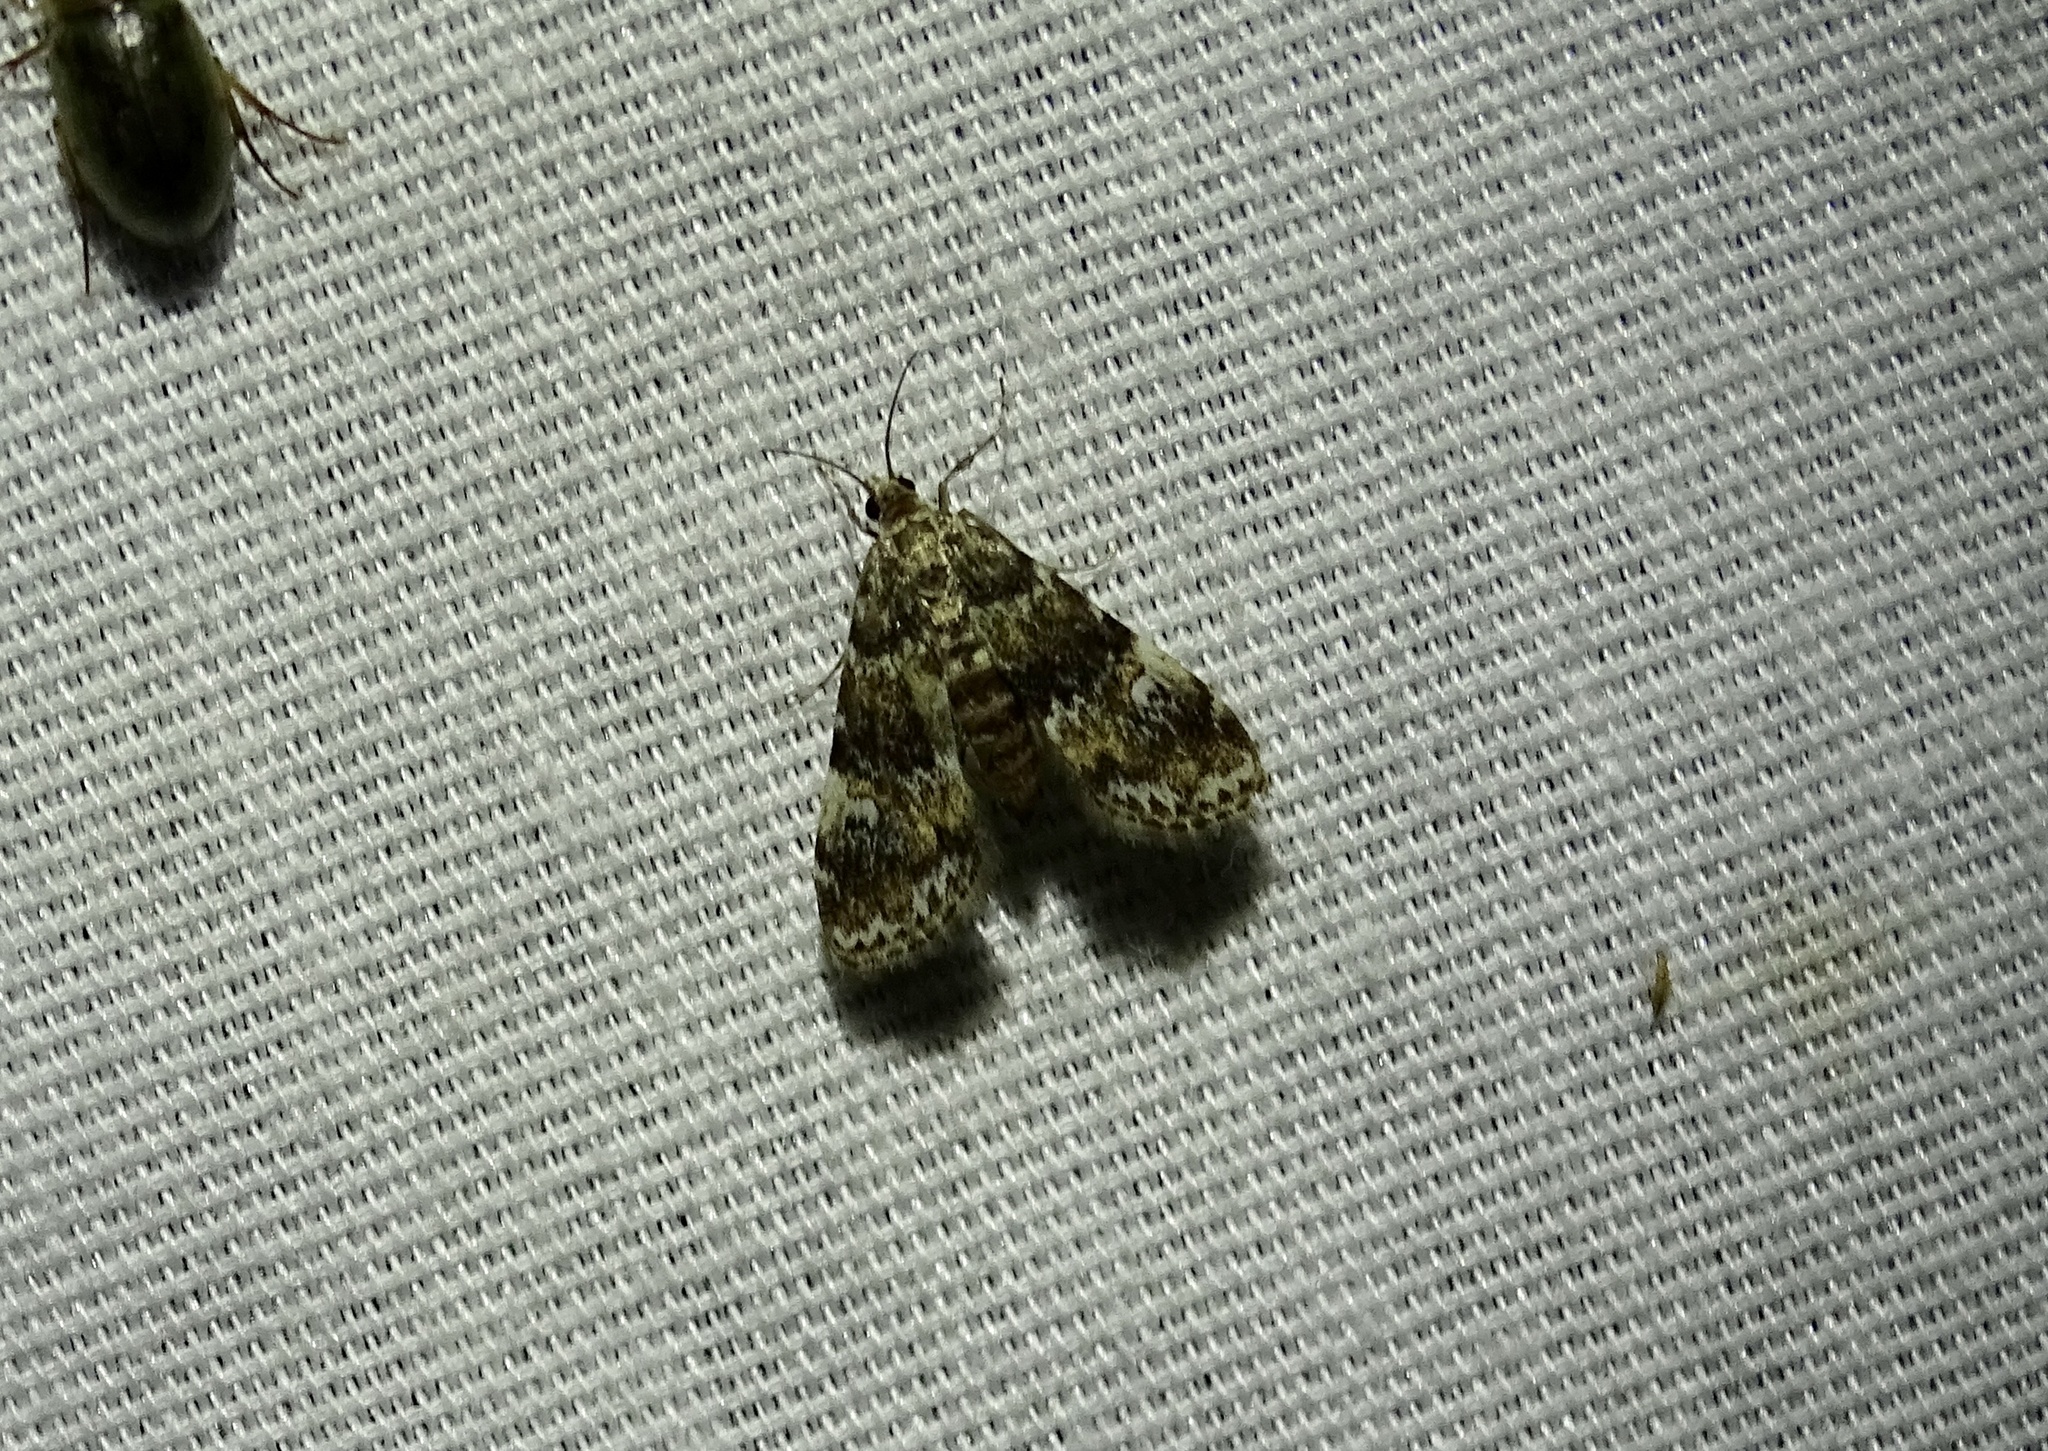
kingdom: Animalia
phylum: Arthropoda
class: Insecta
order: Lepidoptera
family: Crambidae
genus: Elophila
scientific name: Elophila obliteralis
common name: Waterlily leafcutter moth
